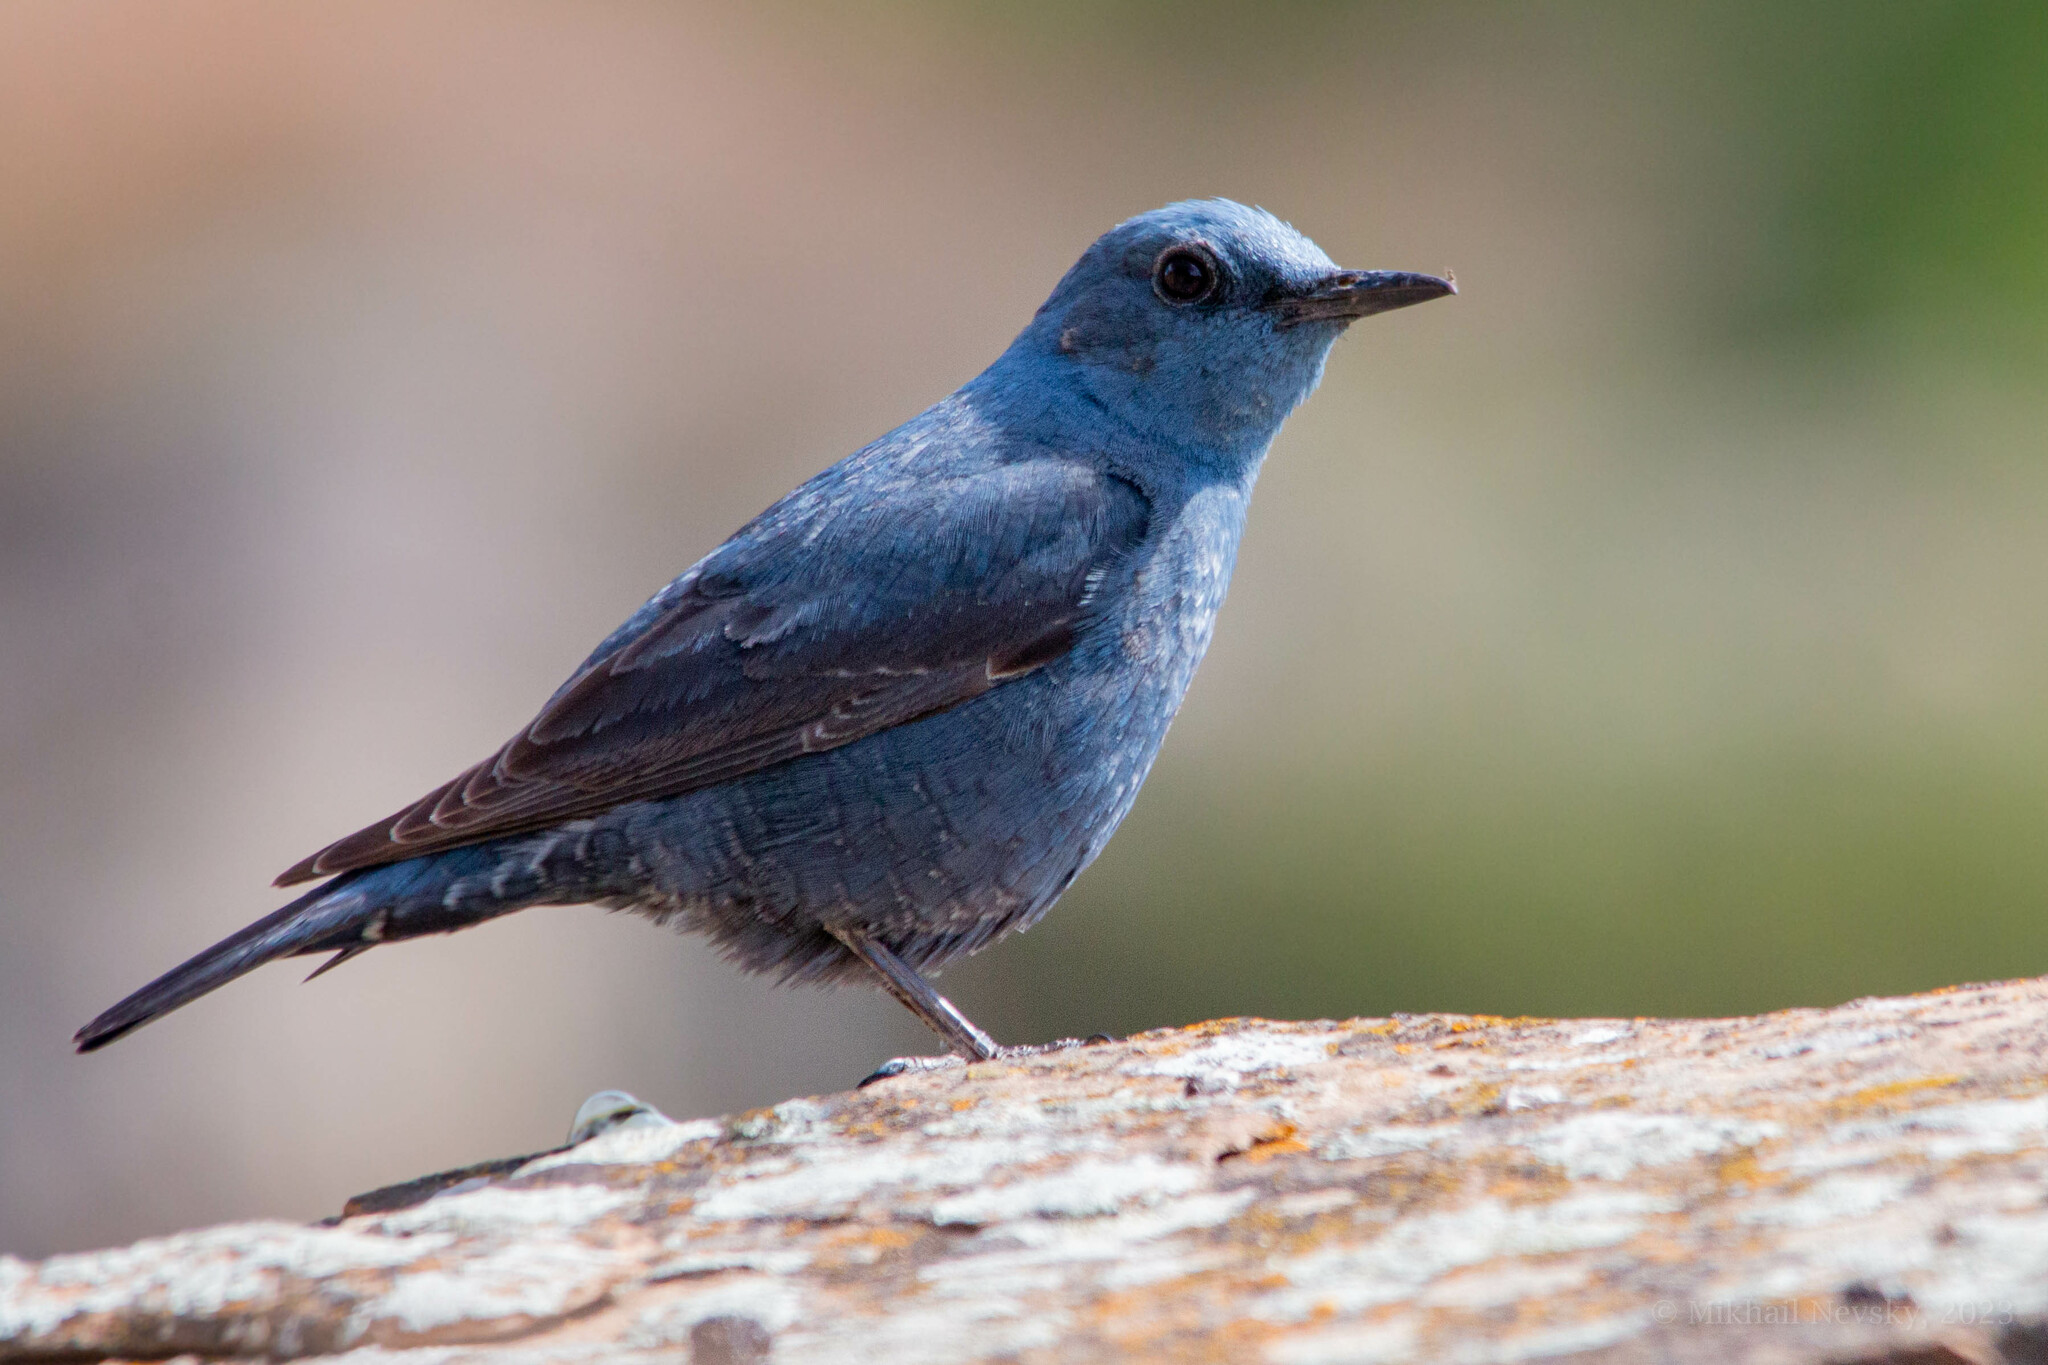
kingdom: Animalia
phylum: Chordata
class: Aves
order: Passeriformes
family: Muscicapidae
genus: Monticola
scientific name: Monticola solitarius
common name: Blue rock thrush
